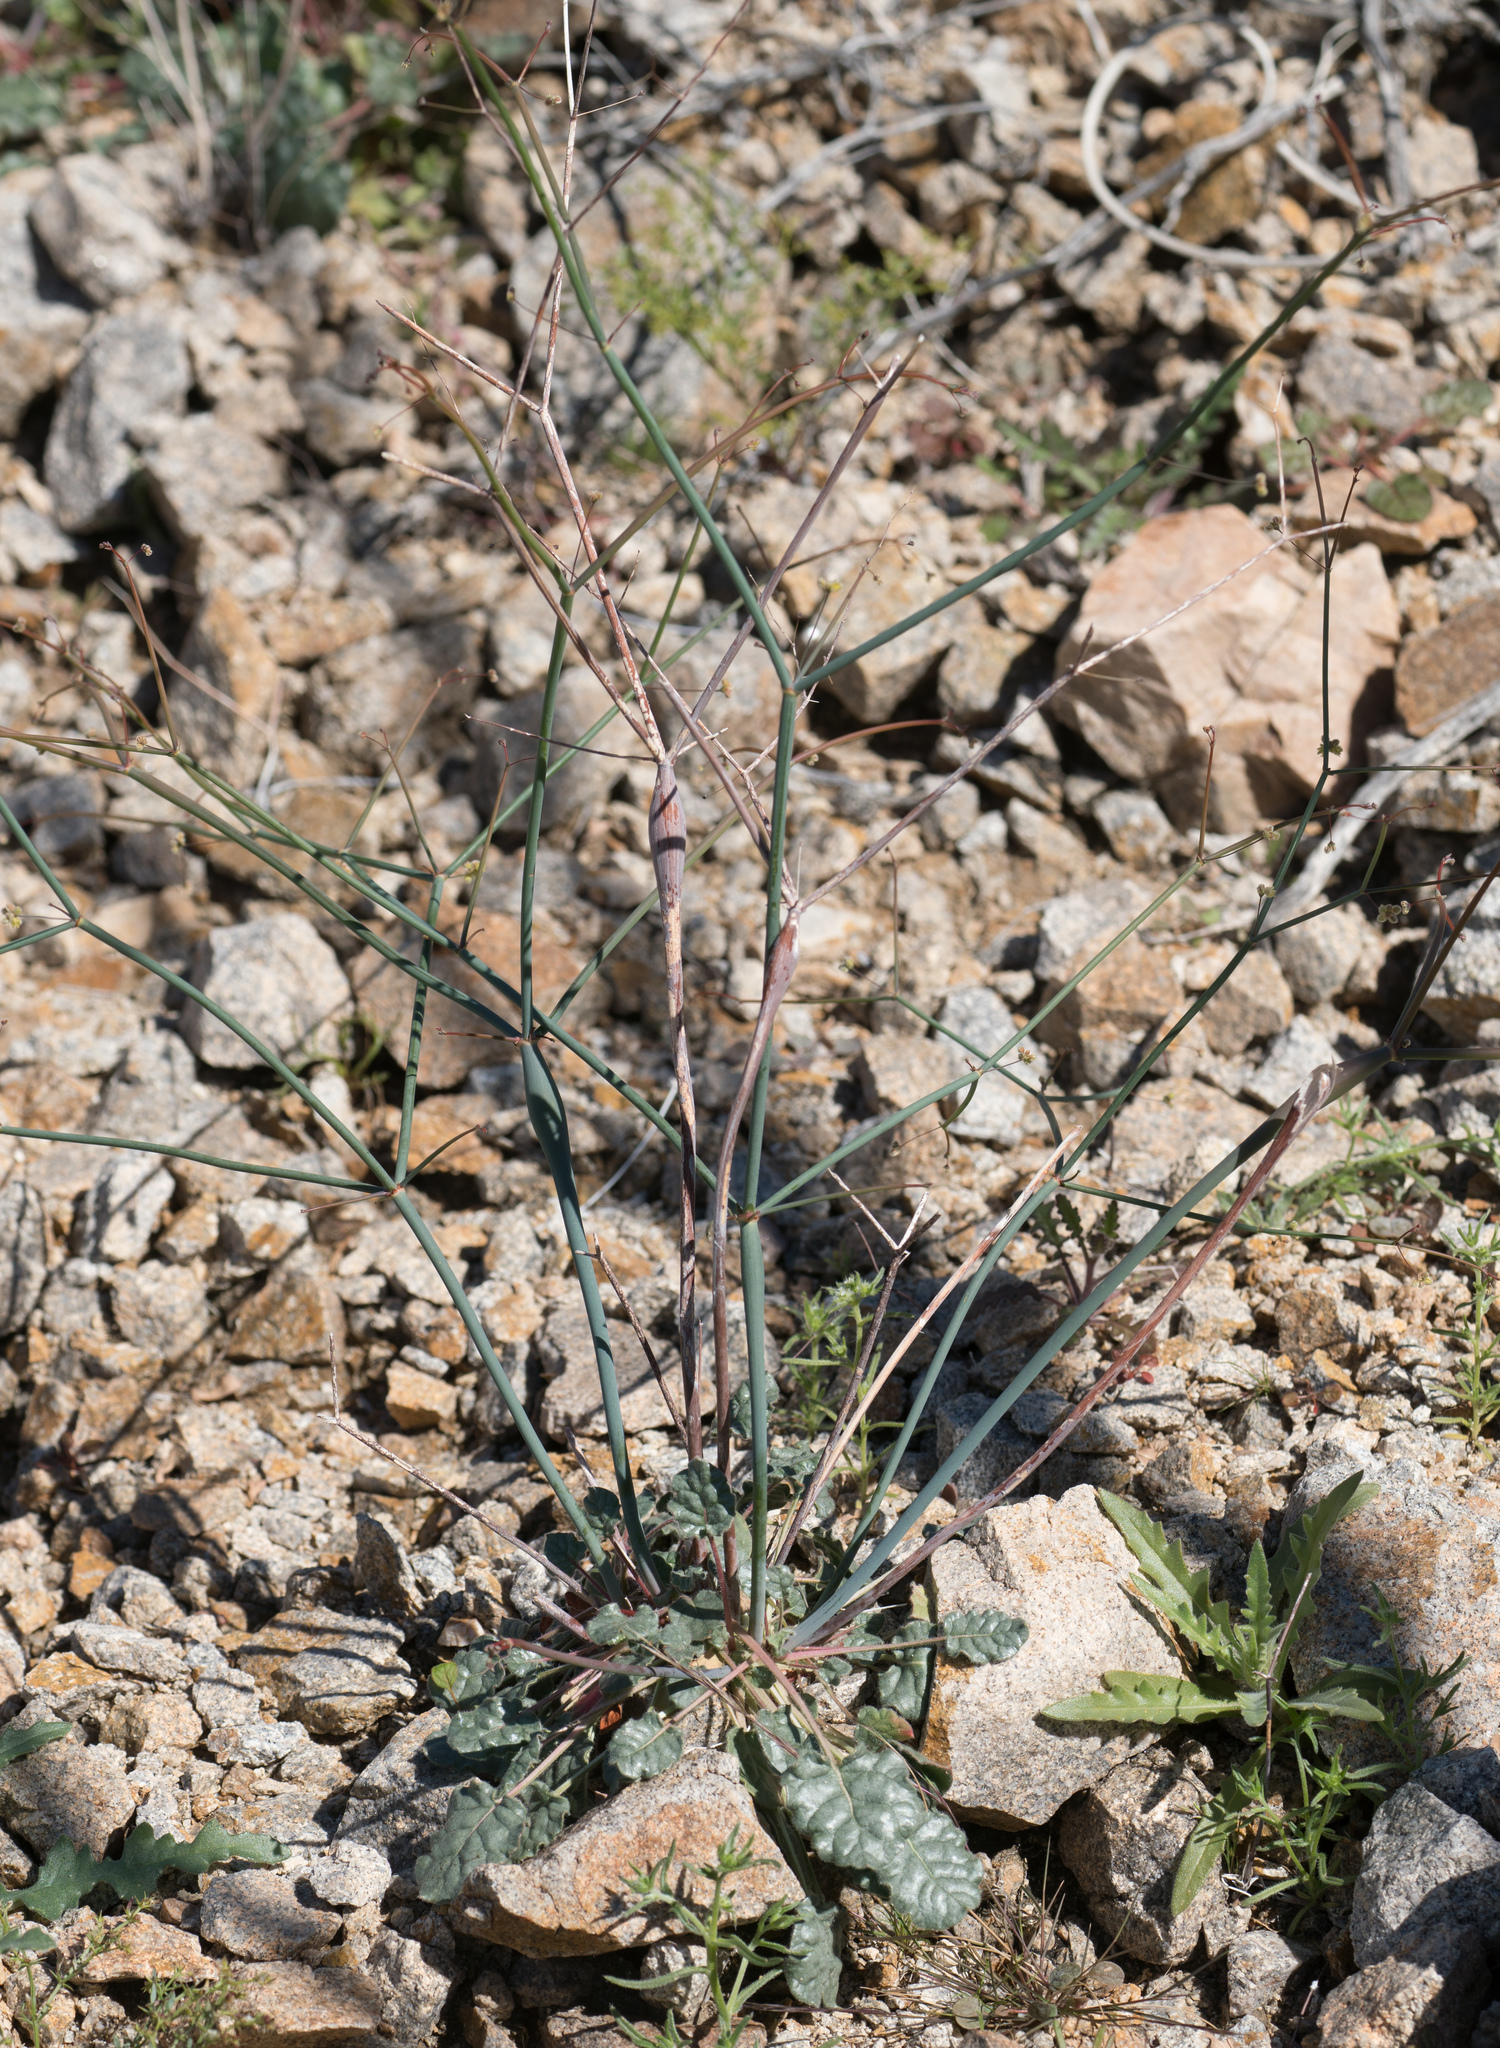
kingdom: Plantae
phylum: Tracheophyta
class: Magnoliopsida
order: Caryophyllales
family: Polygonaceae
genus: Eriogonum
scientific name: Eriogonum inflatum
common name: Desert trumpet
